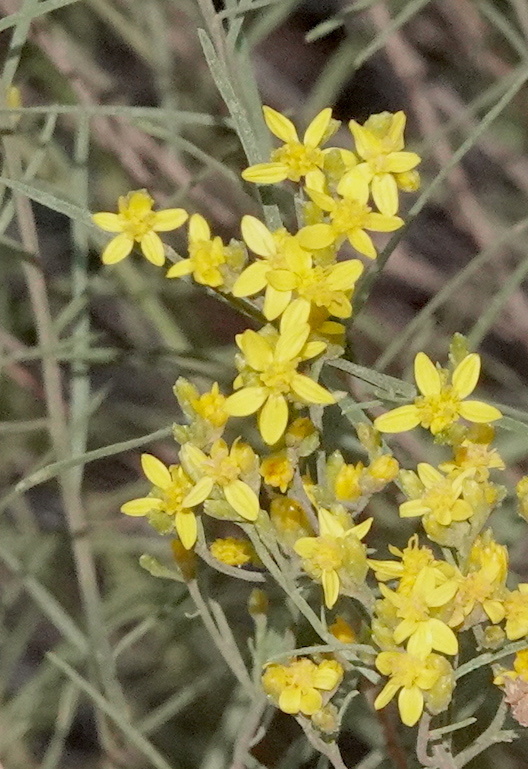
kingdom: Plantae
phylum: Tracheophyta
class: Magnoliopsida
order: Asterales
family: Asteraceae
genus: Gutierrezia
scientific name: Gutierrezia sarothrae
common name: Broom snakeweed
